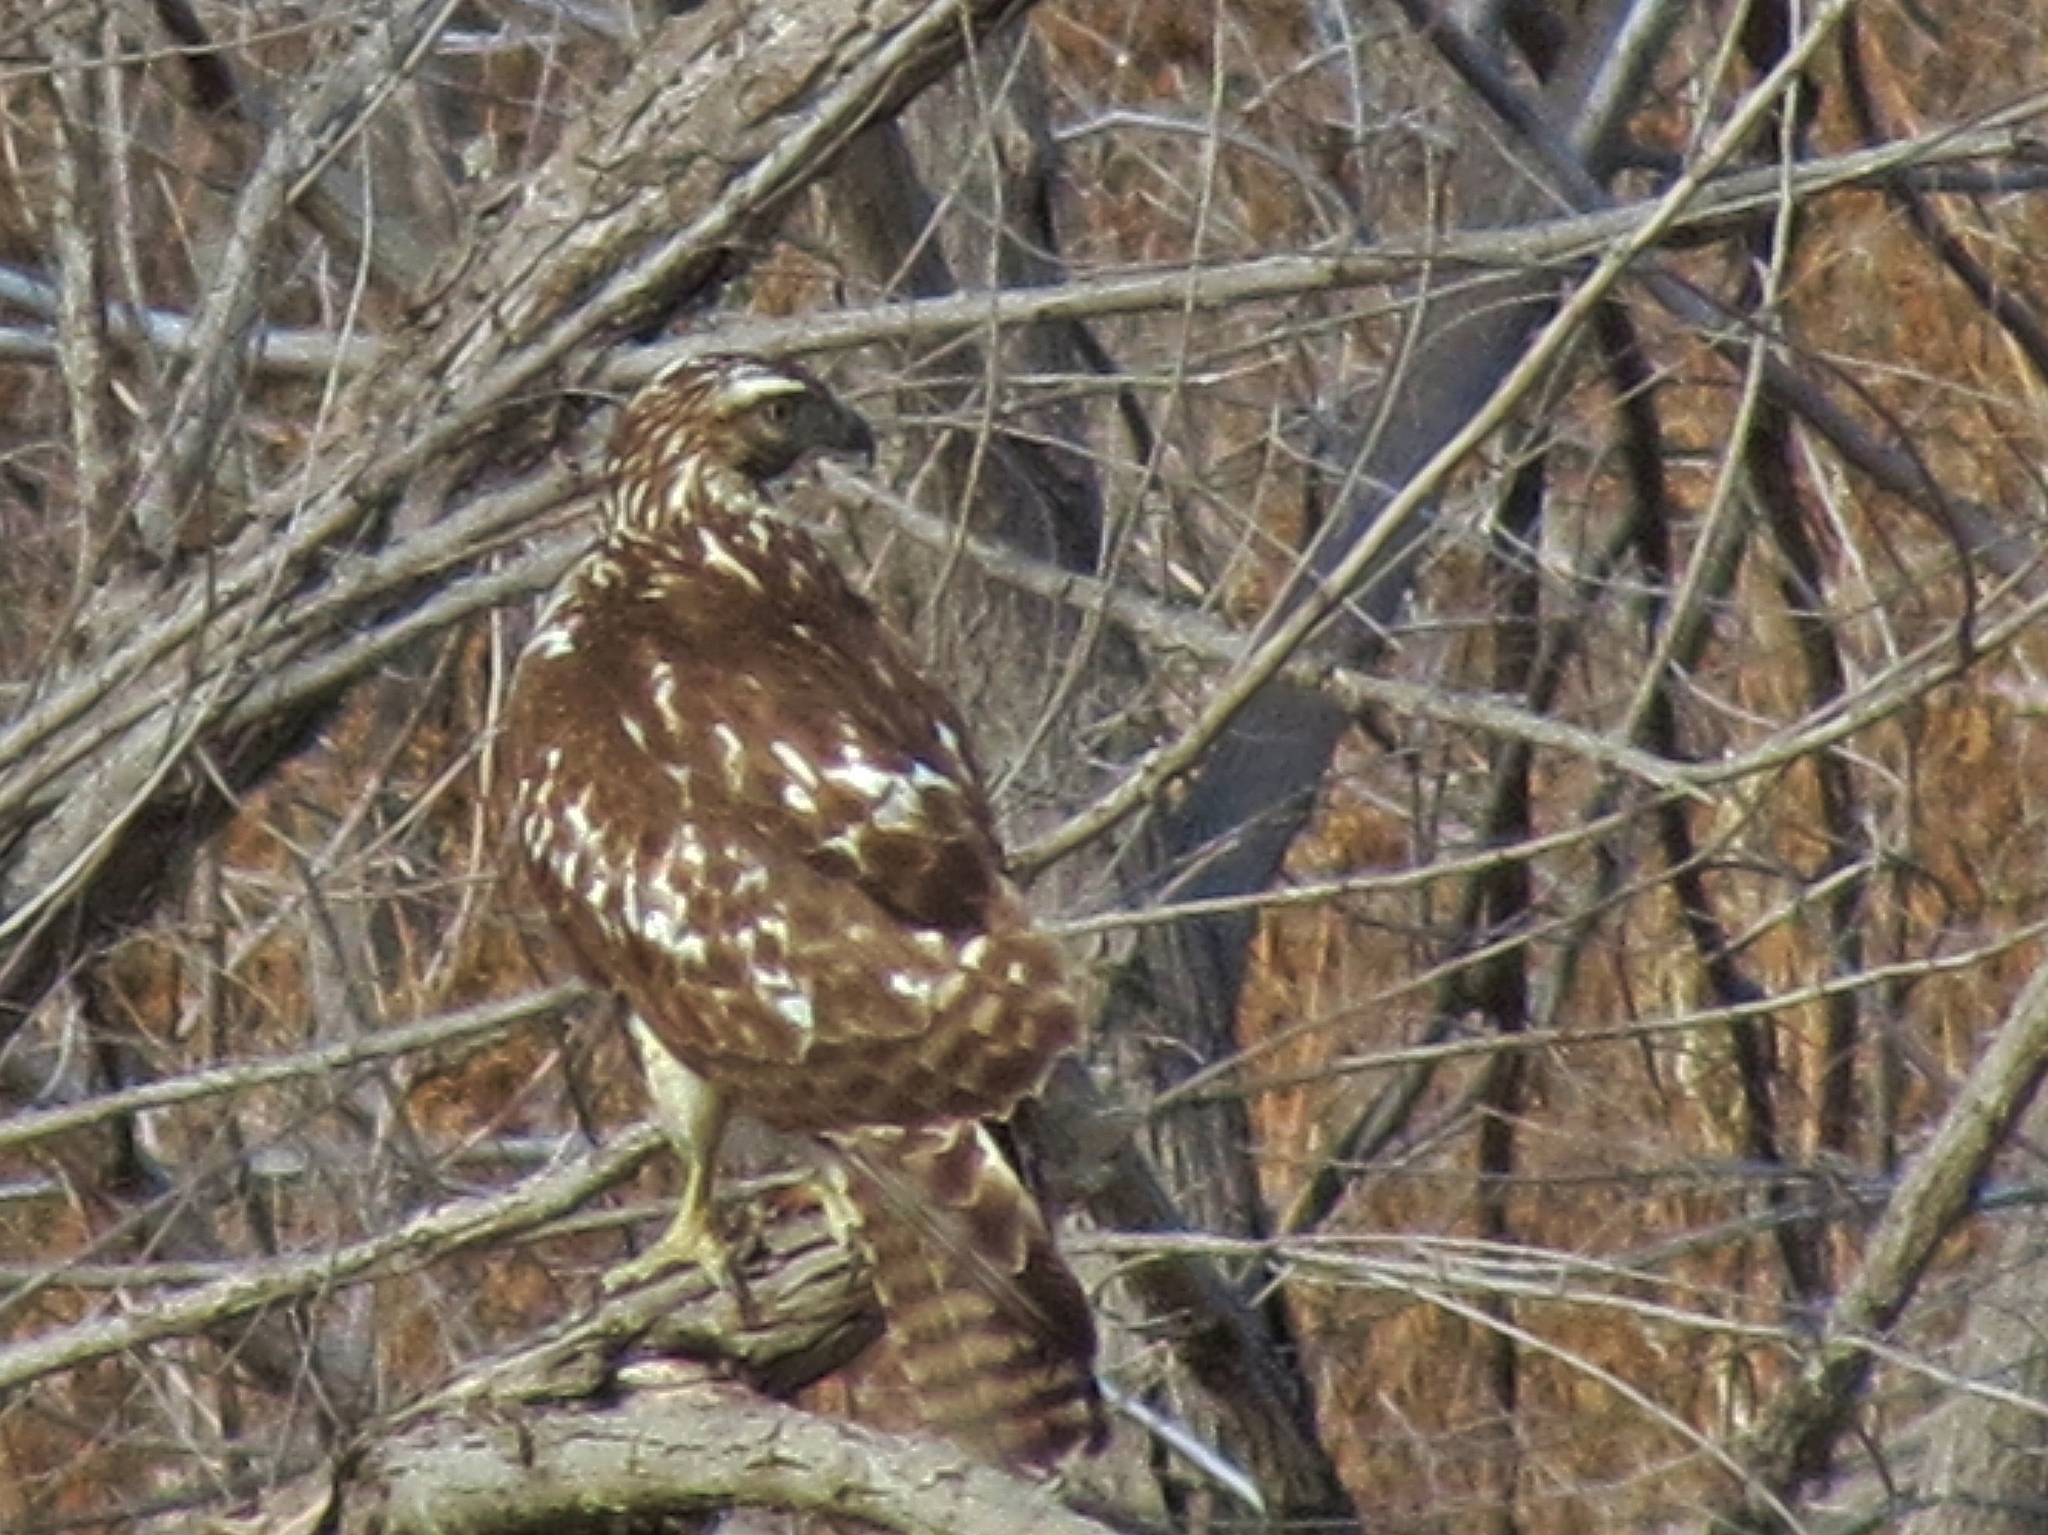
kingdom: Animalia
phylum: Chordata
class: Aves
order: Accipitriformes
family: Accipitridae
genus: Buteo
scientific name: Buteo jamaicensis
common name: Red-tailed hawk
